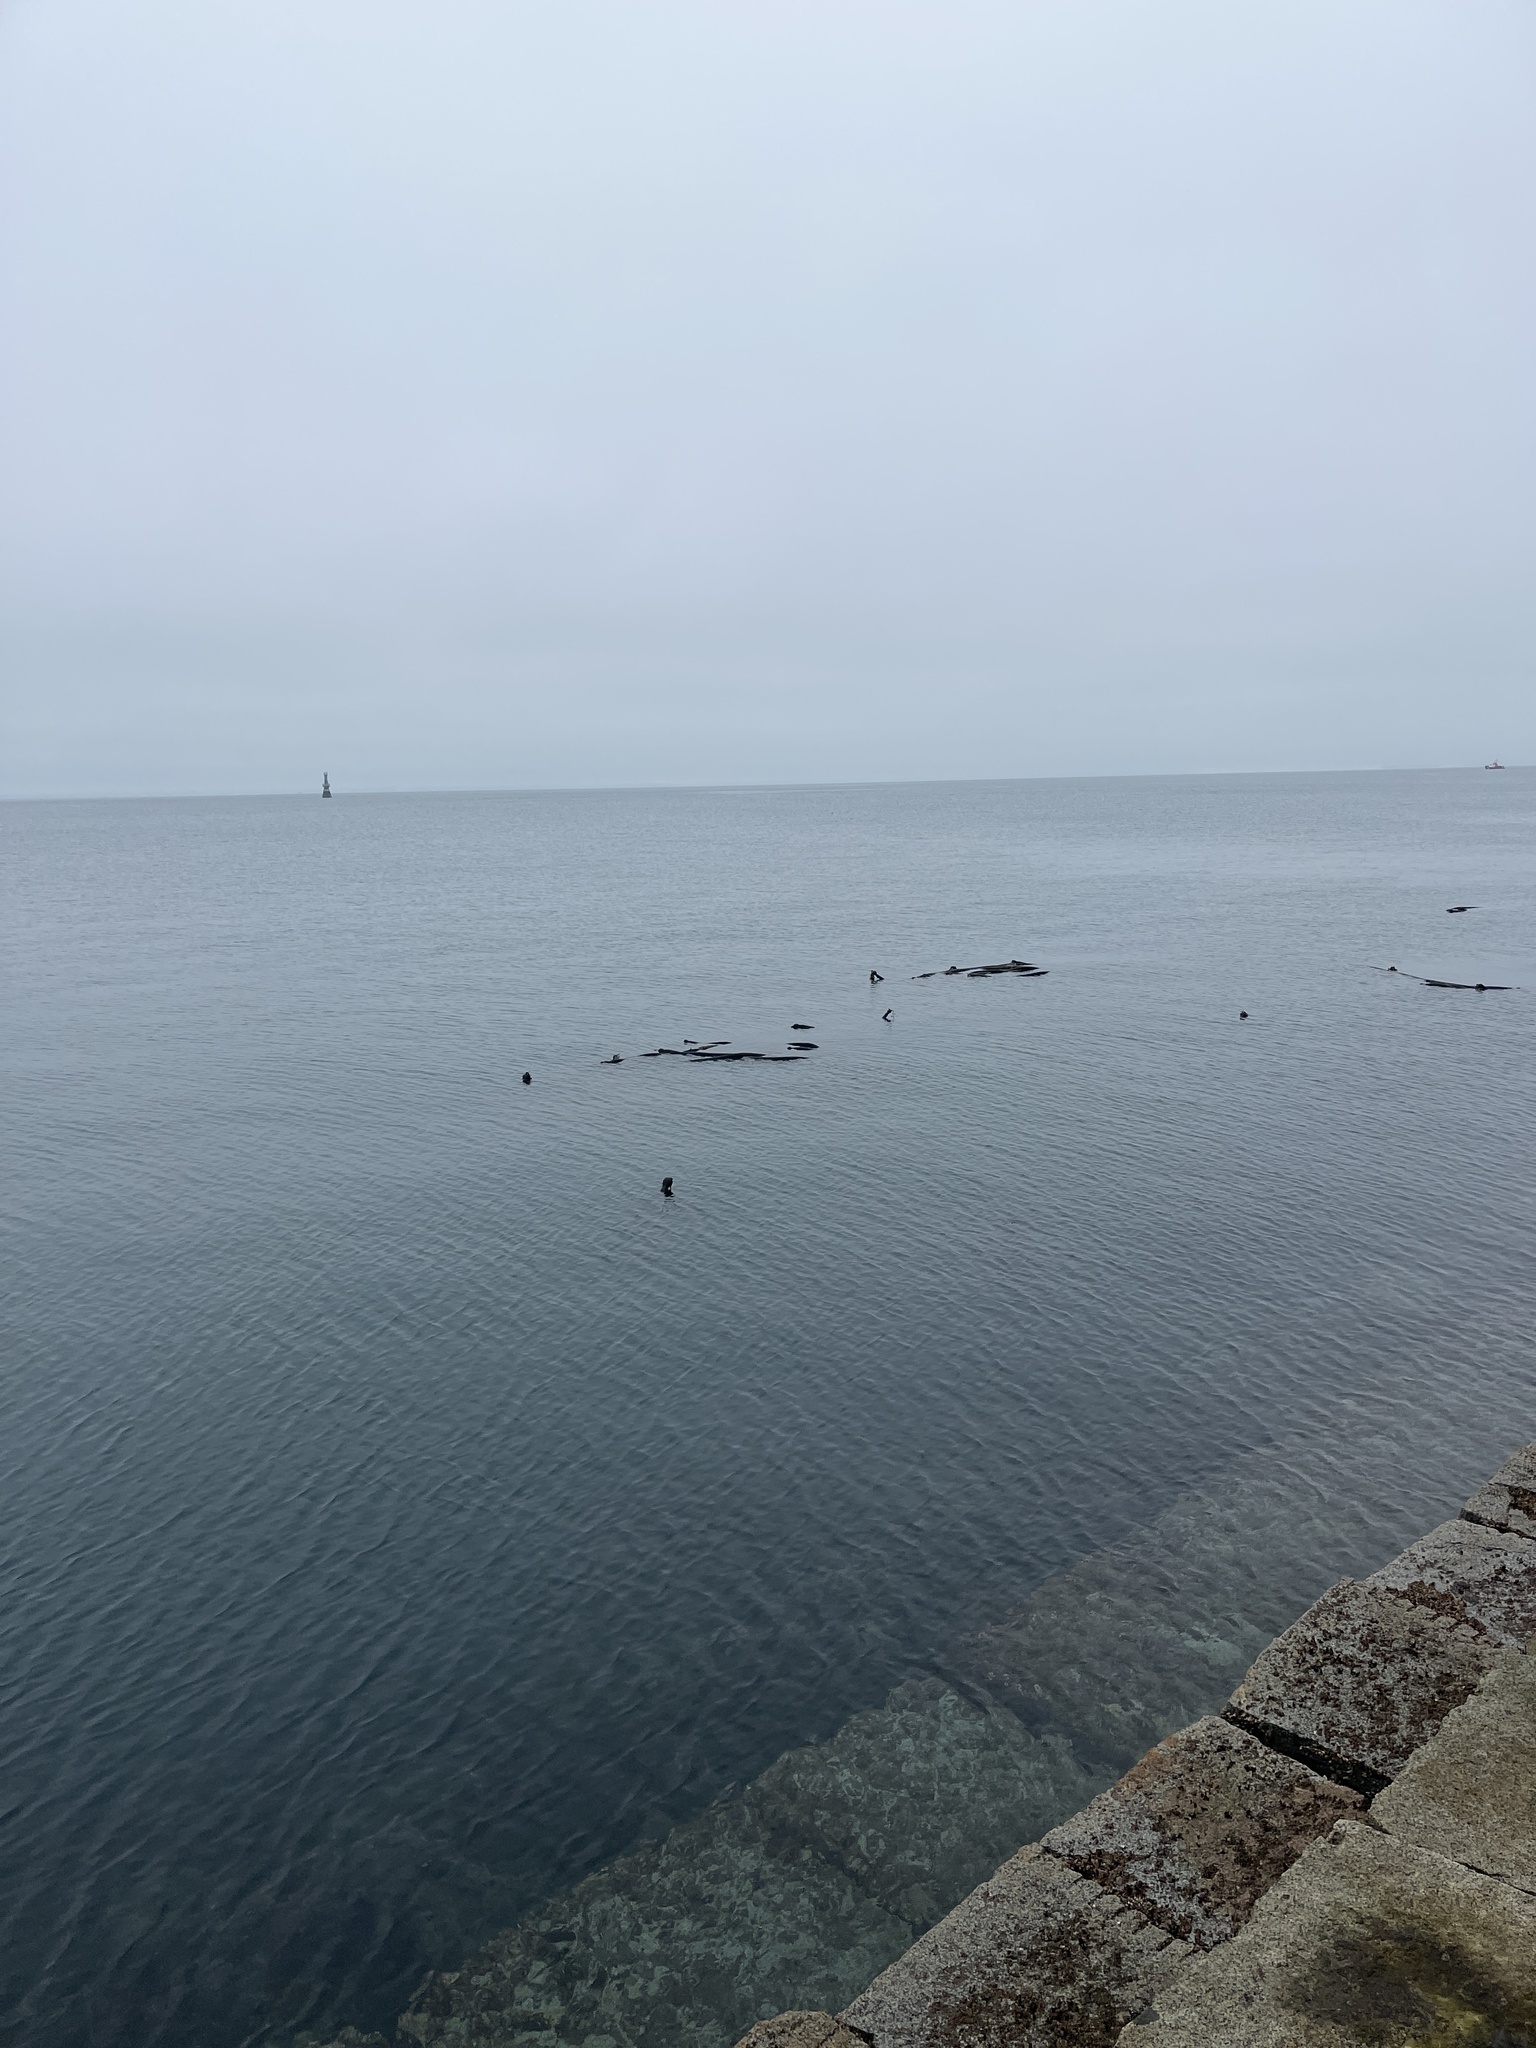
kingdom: Chromista
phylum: Ochrophyta
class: Phaeophyceae
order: Laminariales
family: Laminariaceae
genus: Nereocystis
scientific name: Nereocystis luetkeana
